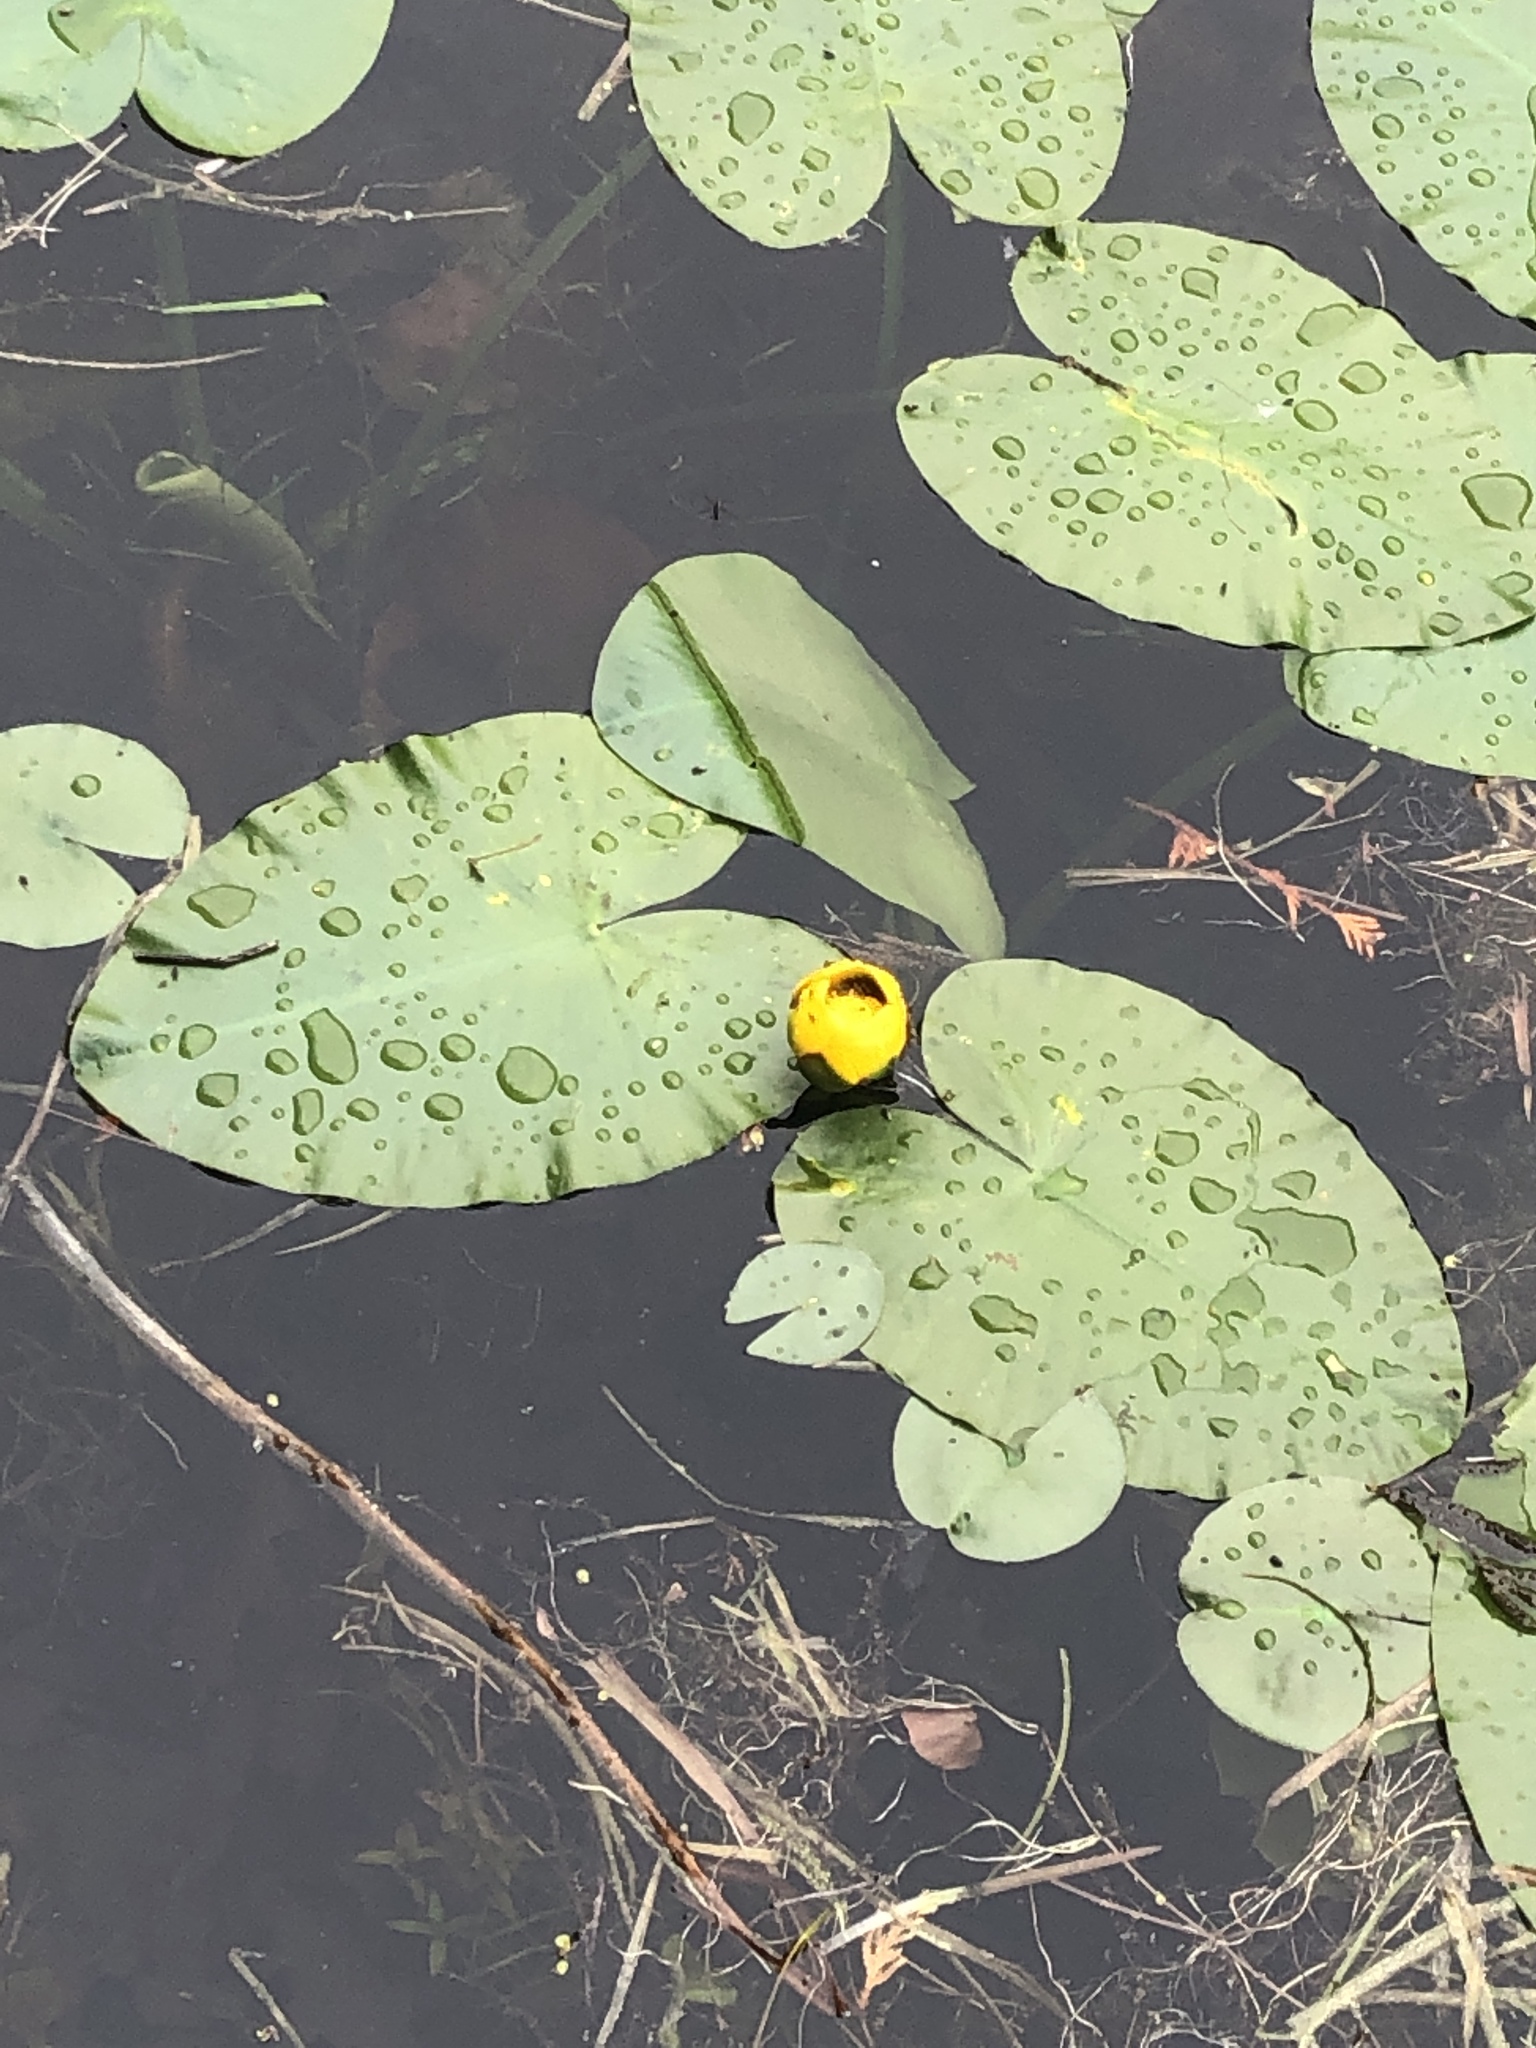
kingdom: Plantae
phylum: Tracheophyta
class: Magnoliopsida
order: Nymphaeales
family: Nymphaeaceae
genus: Nuphar
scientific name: Nuphar variegata
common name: Beaver-root
